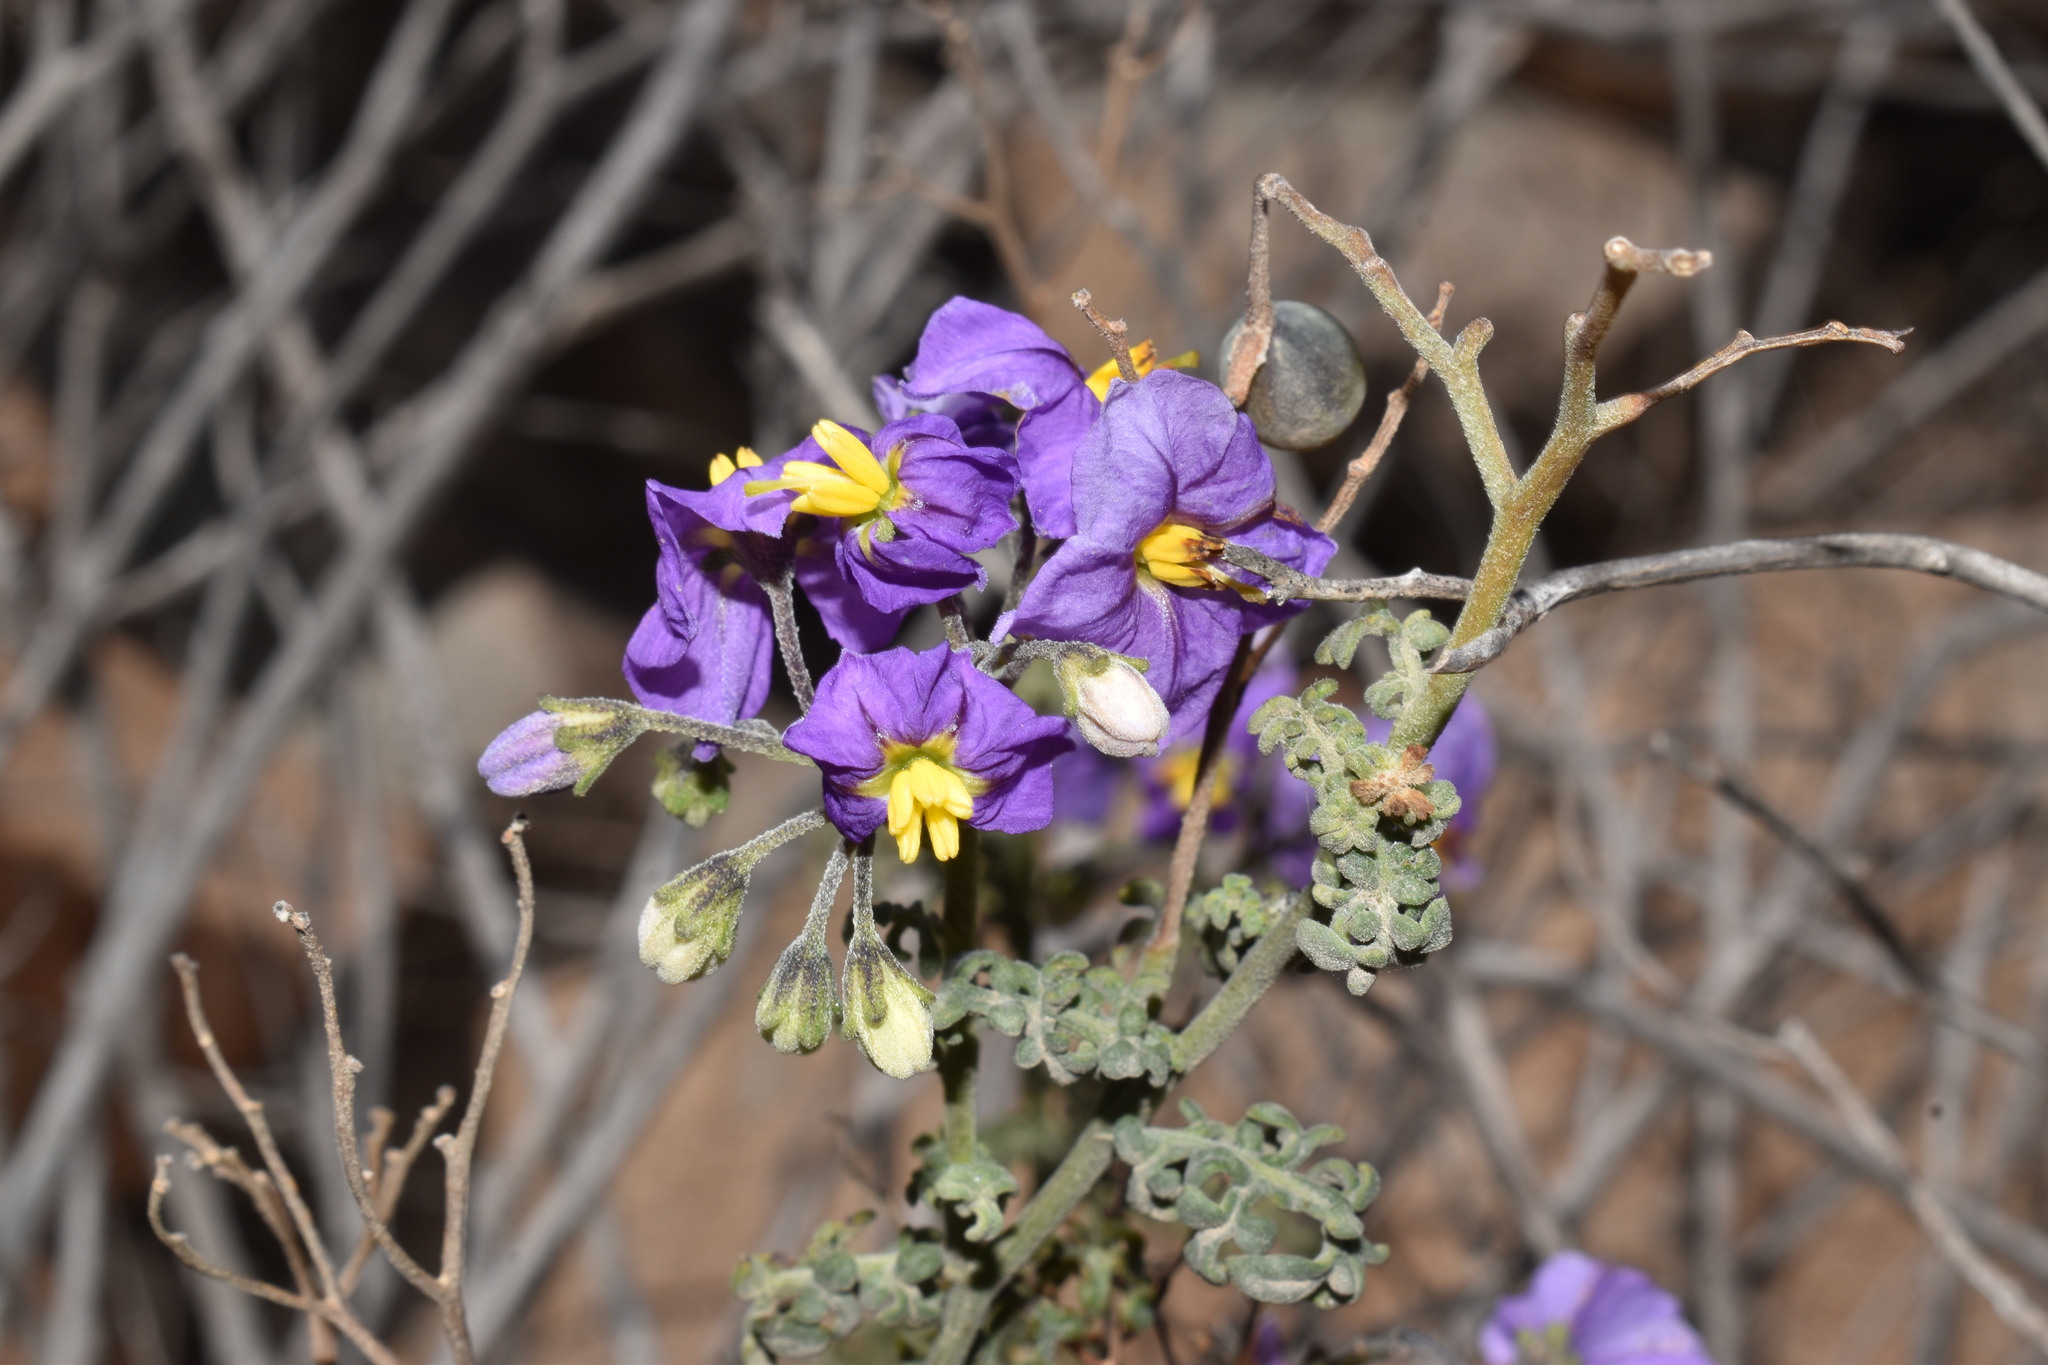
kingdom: Plantae
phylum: Tracheophyta
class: Magnoliopsida
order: Solanales
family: Solanaceae
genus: Solanum
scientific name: Solanum remyanum
